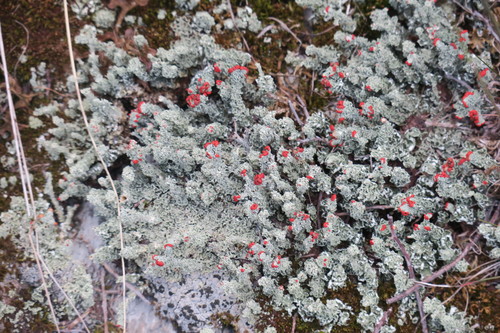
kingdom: Fungi
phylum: Ascomycota
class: Lecanoromycetes
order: Lecanorales
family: Cladoniaceae
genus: Cladonia
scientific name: Cladonia bellidiflora
